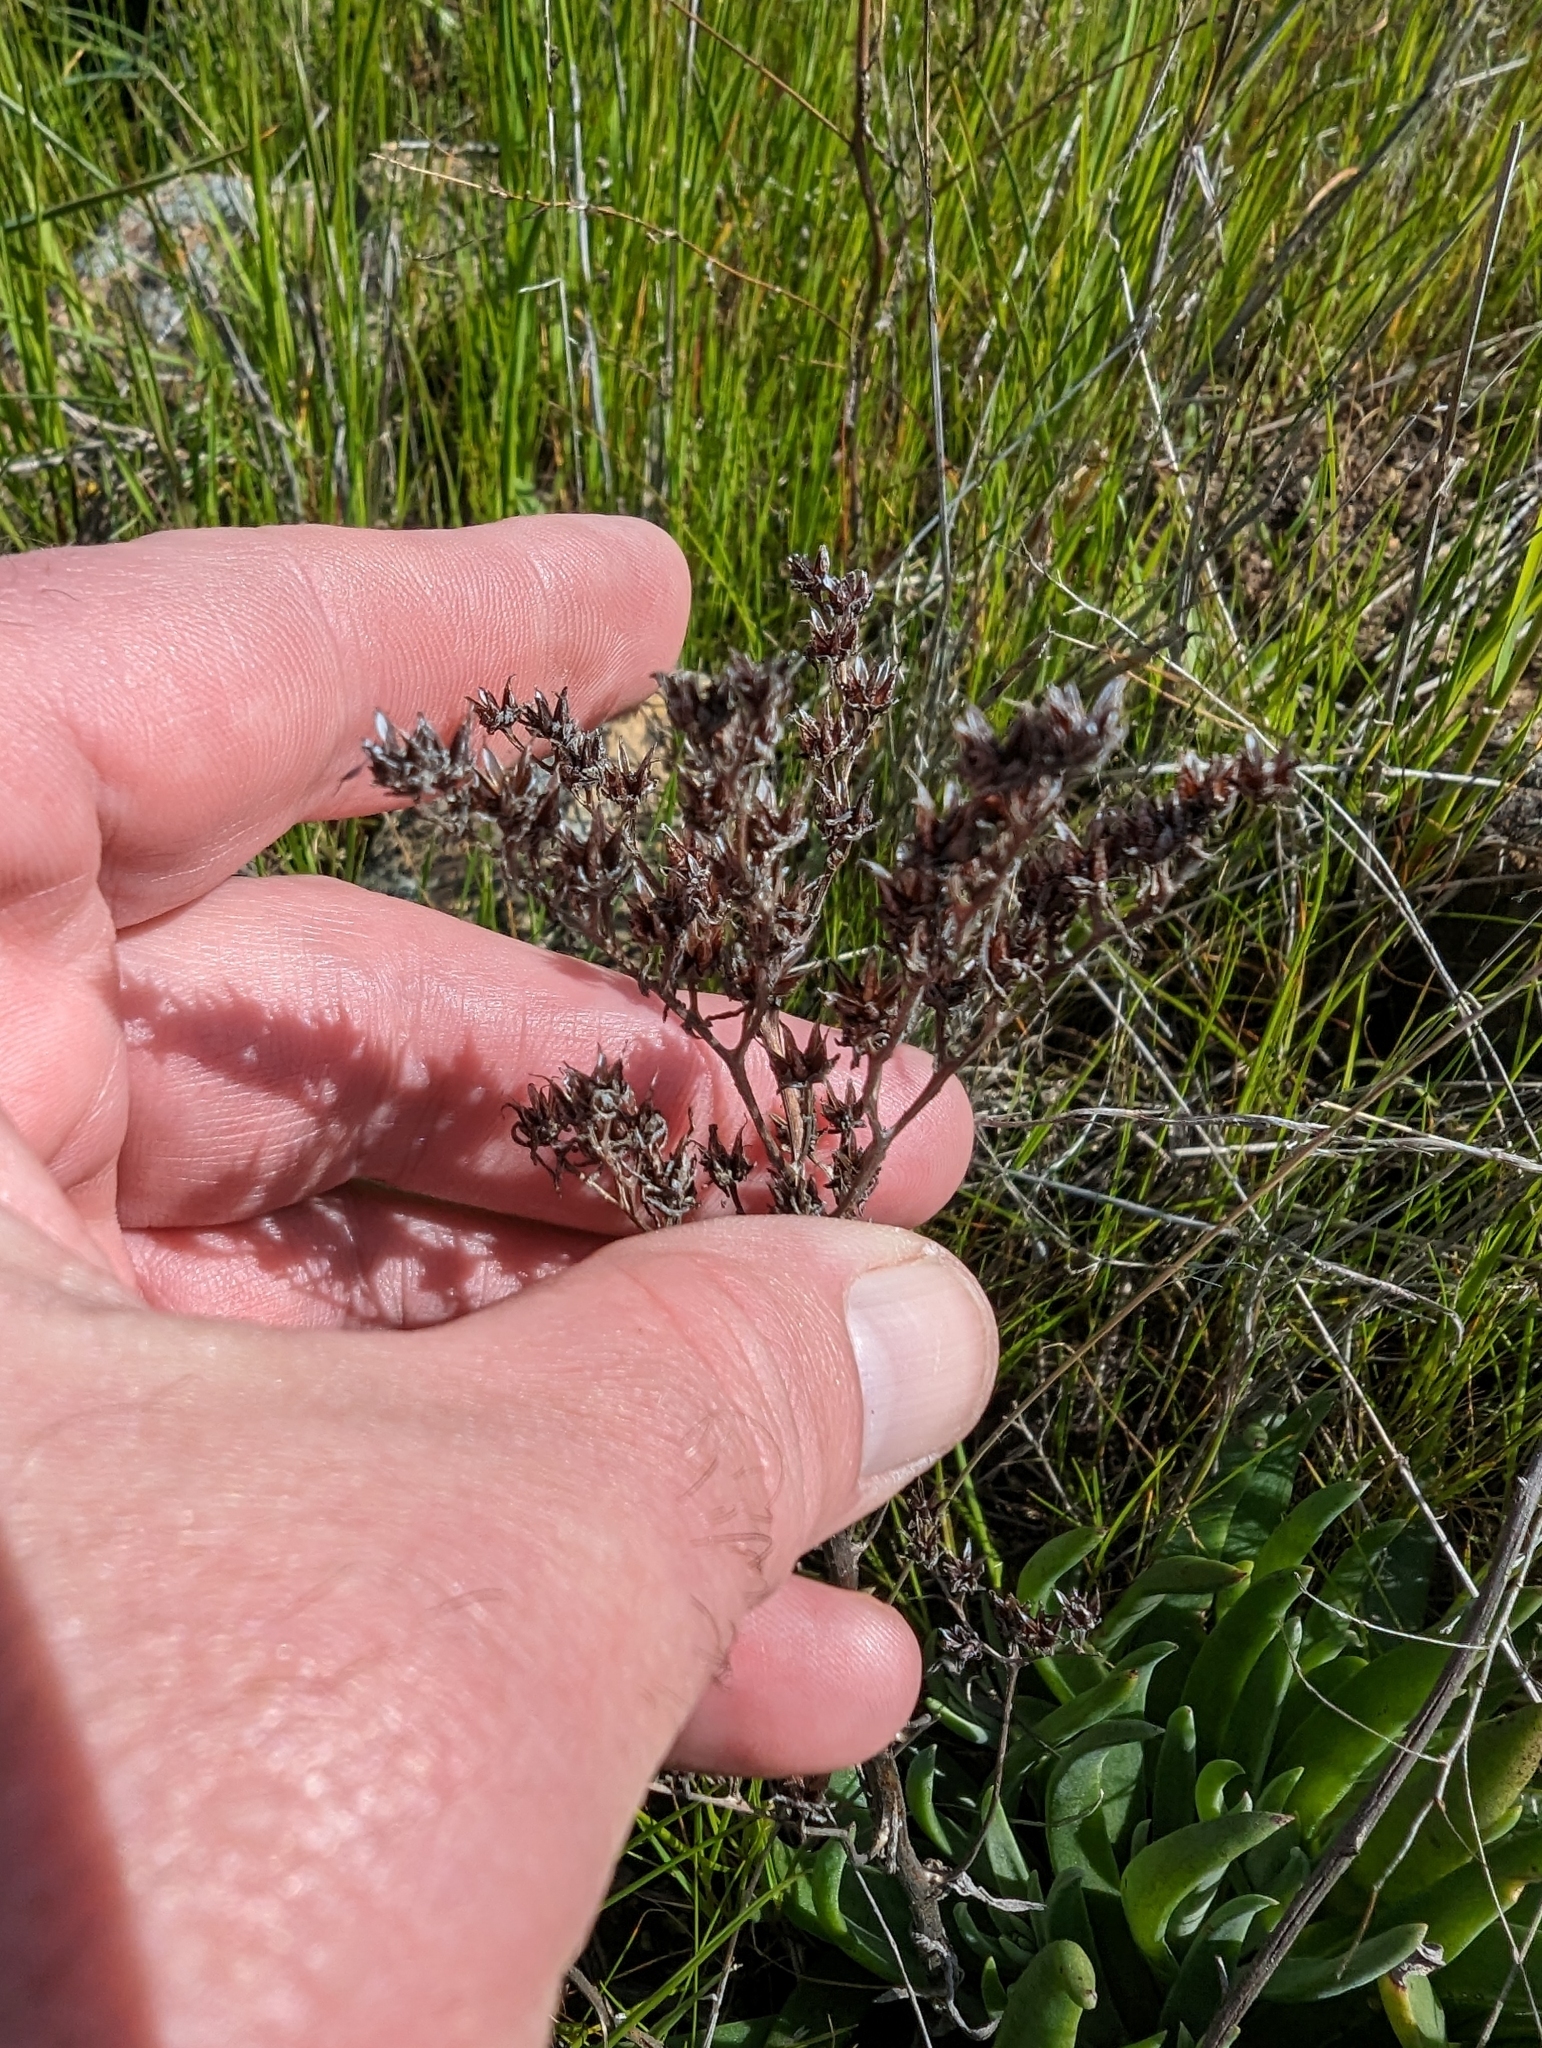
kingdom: Plantae
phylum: Tracheophyta
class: Magnoliopsida
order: Saxifragales
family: Crassulaceae
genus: Dudleya
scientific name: Dudleya abramsii
